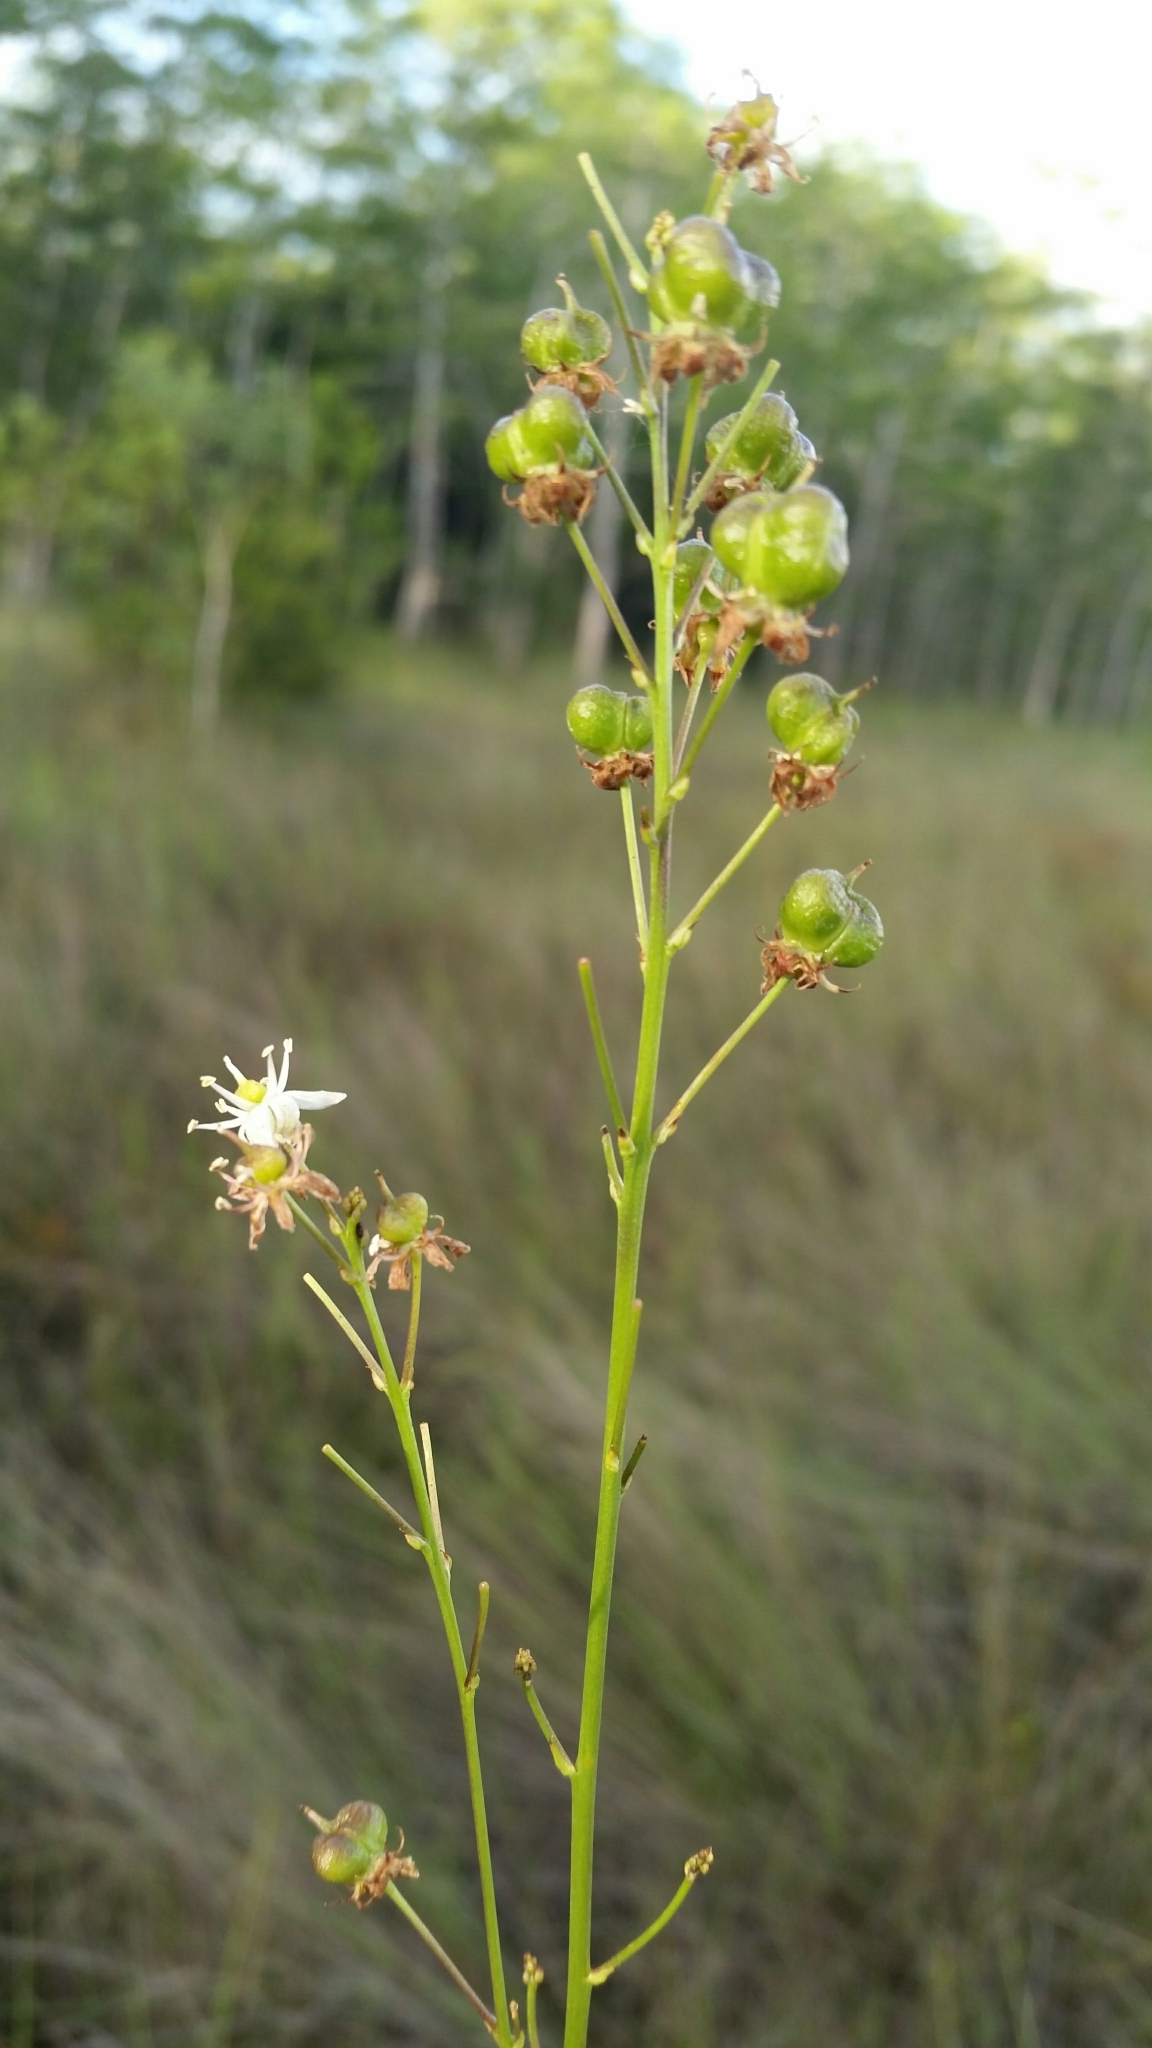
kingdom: Plantae
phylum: Tracheophyta
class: Liliopsida
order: Asparagales
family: Asparagaceae
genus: Schoenolirion
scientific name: Schoenolirion albiflorum
